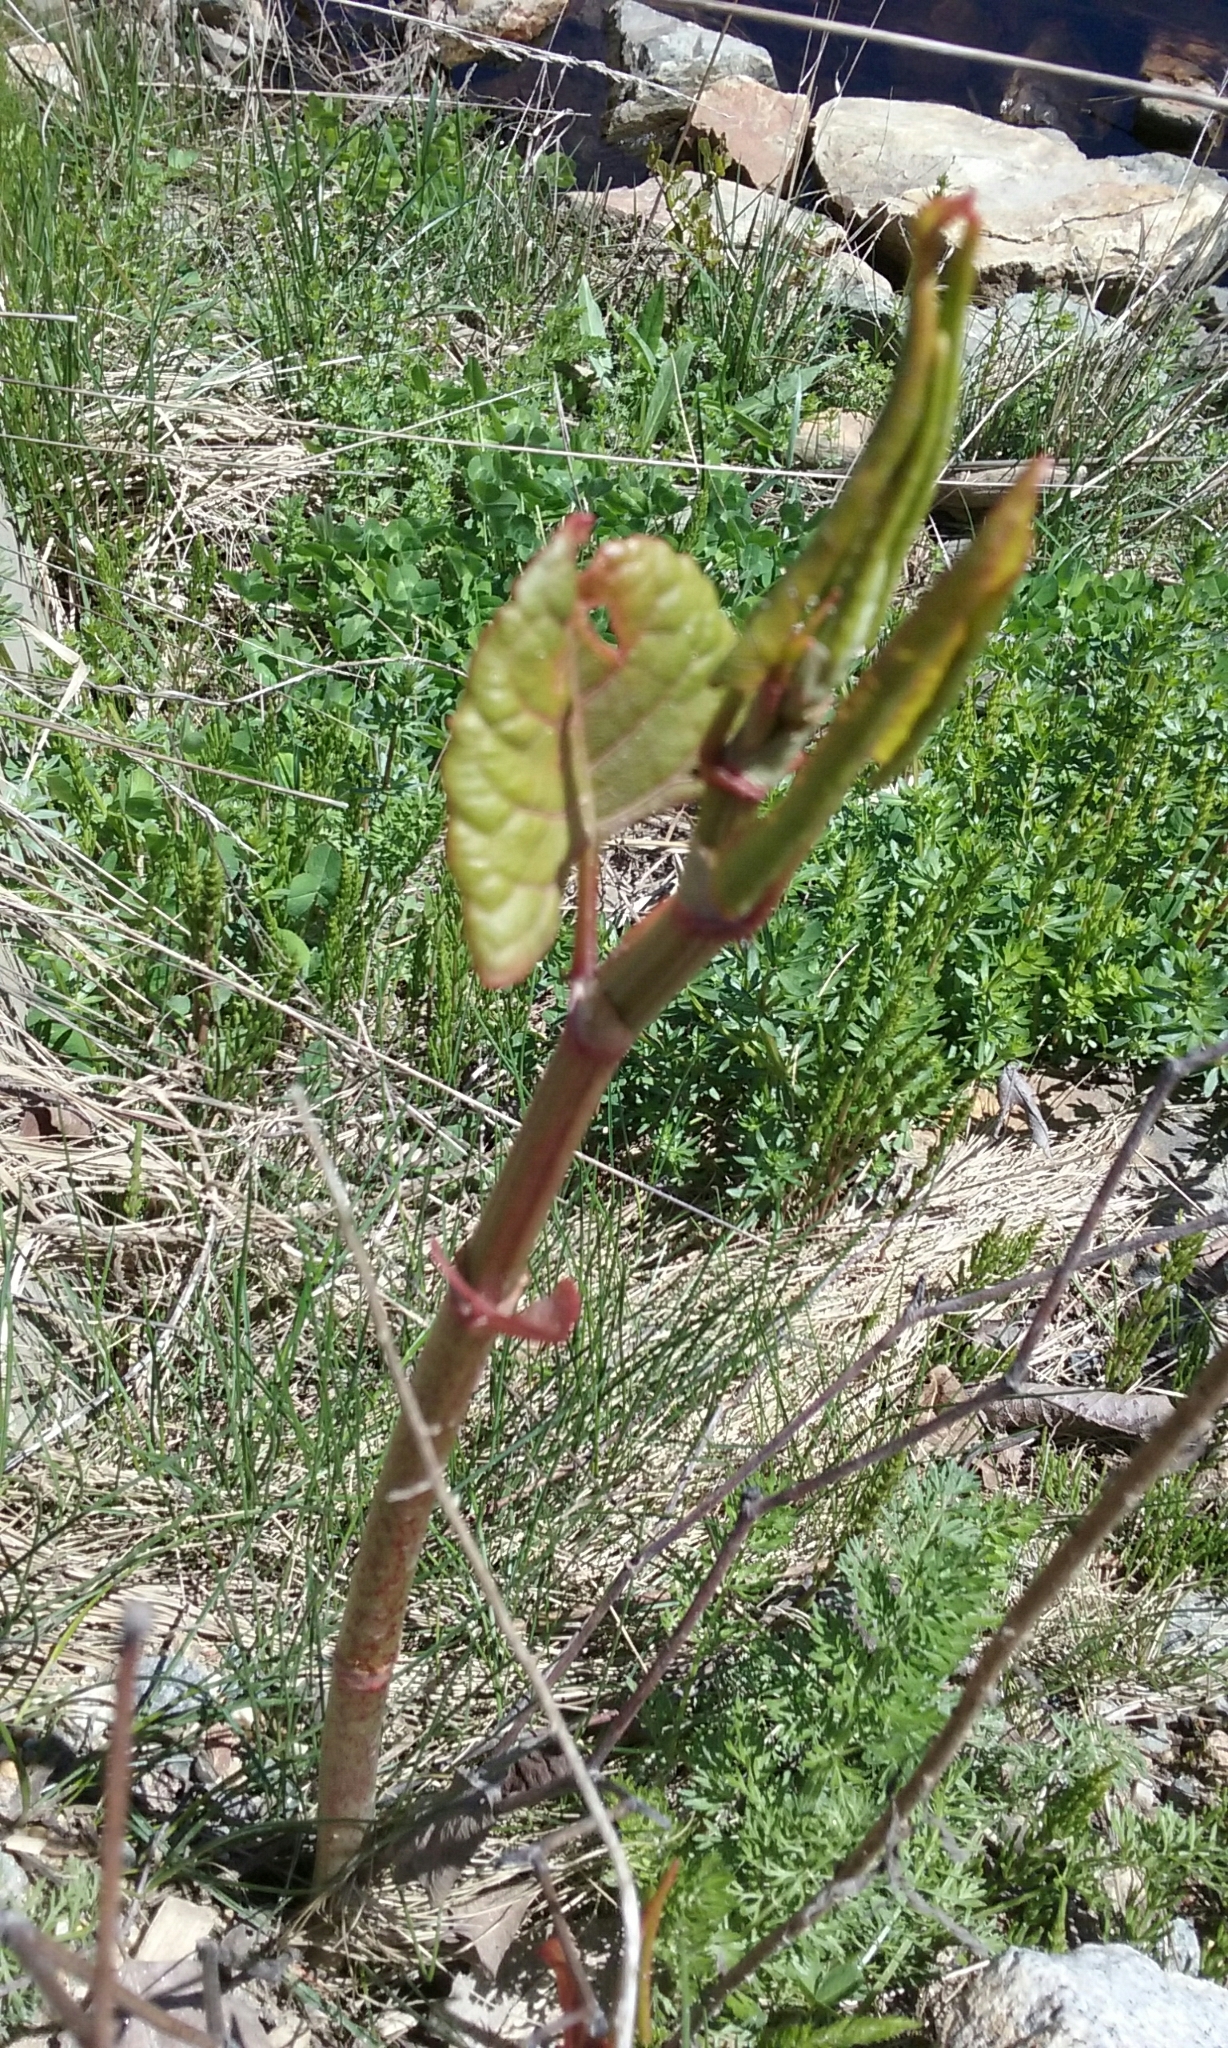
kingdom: Plantae
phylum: Tracheophyta
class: Magnoliopsida
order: Caryophyllales
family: Polygonaceae
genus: Reynoutria
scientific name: Reynoutria japonica
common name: Japanese knotweed
